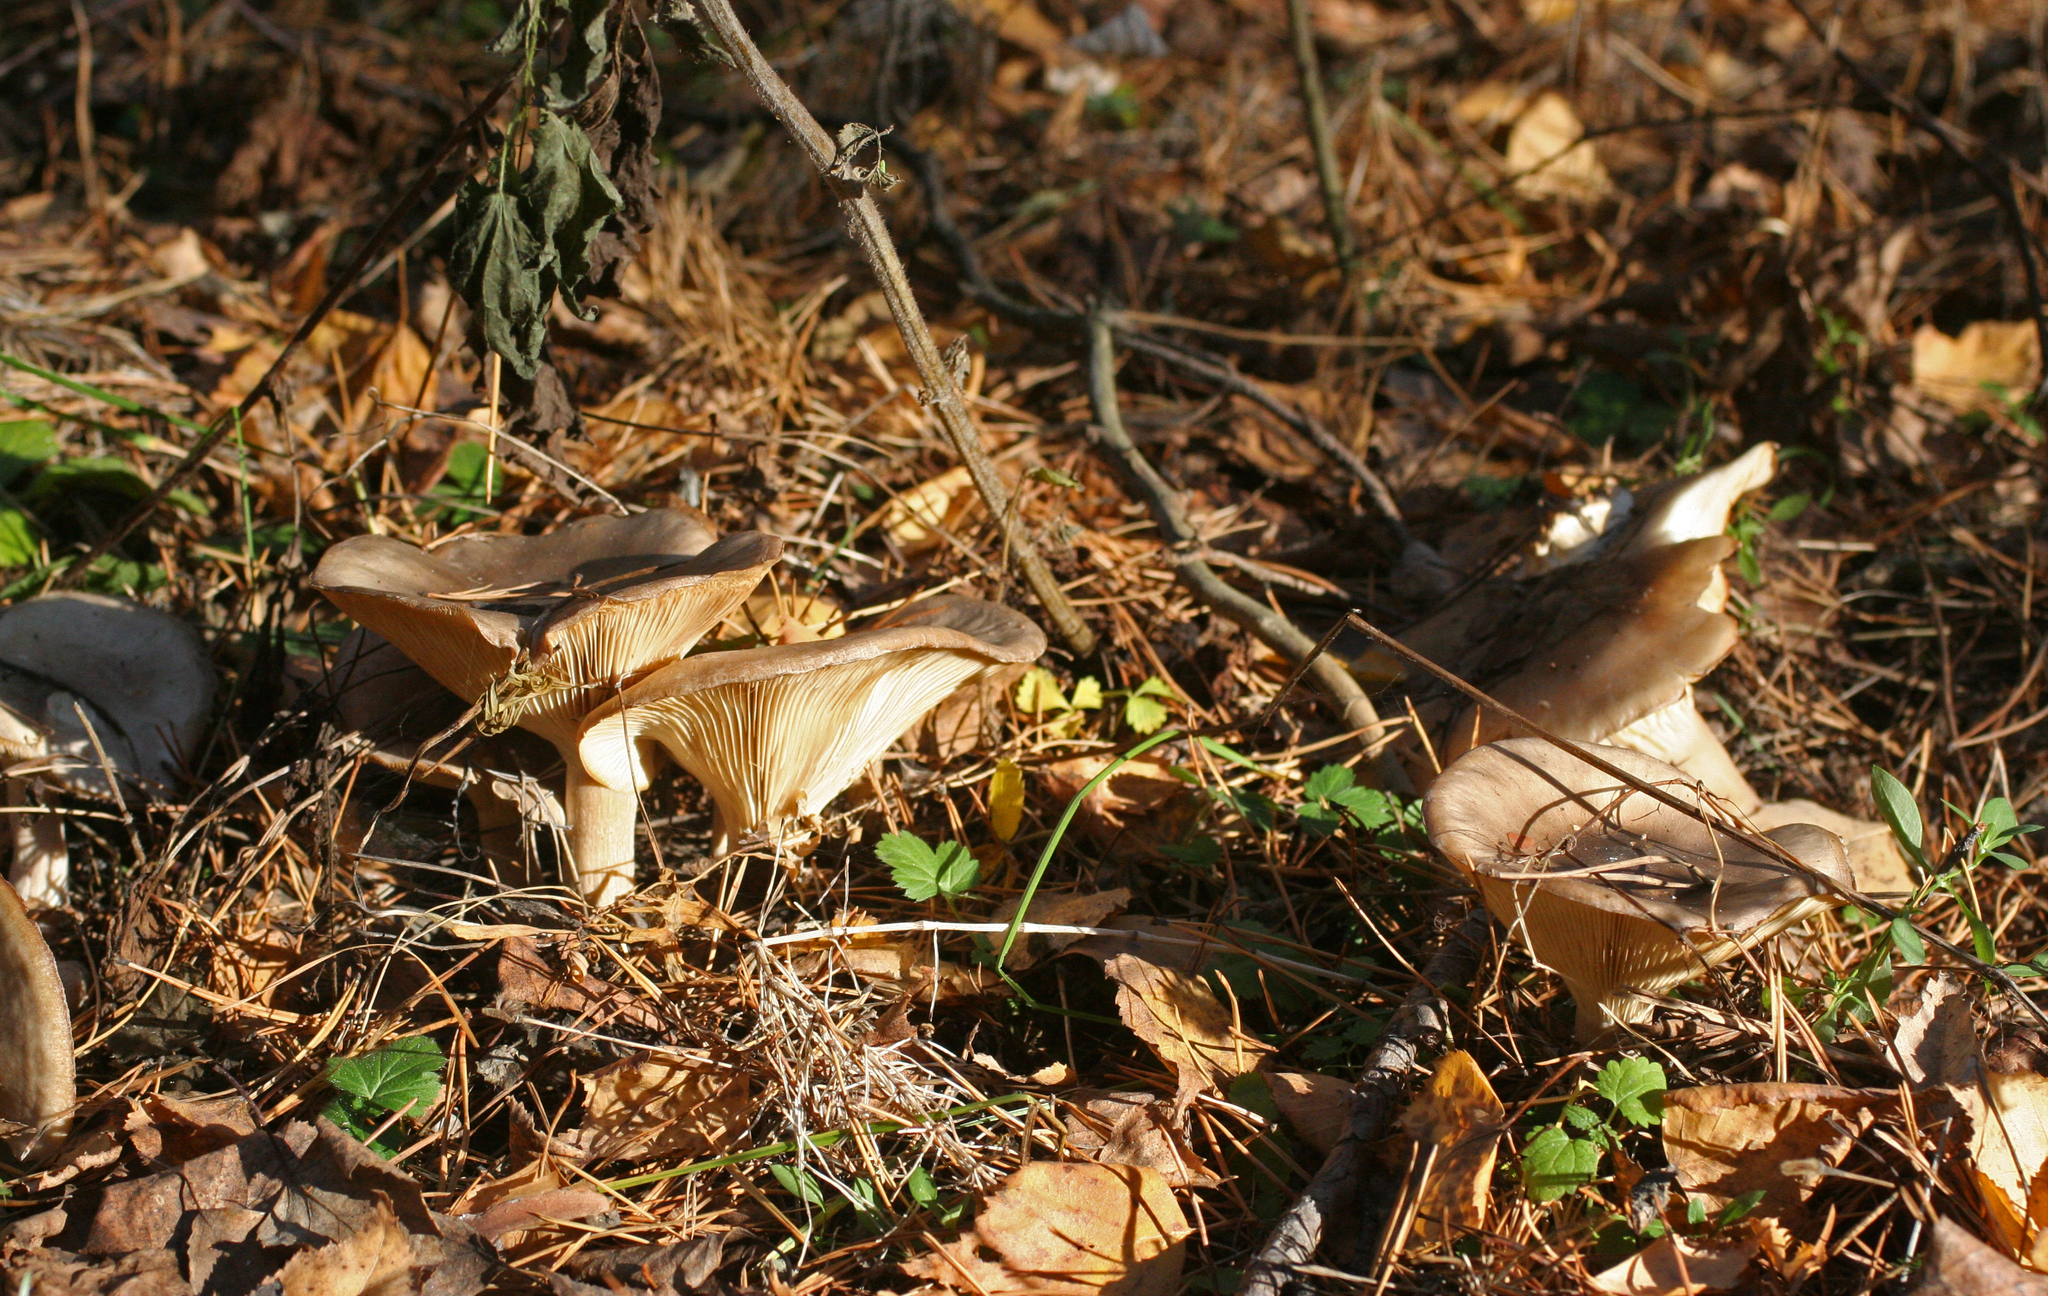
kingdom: Fungi
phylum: Basidiomycota
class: Agaricomycetes
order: Agaricales
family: Tricholomataceae
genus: Clitocybe
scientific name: Clitocybe nebularis
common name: Clouded agaric
